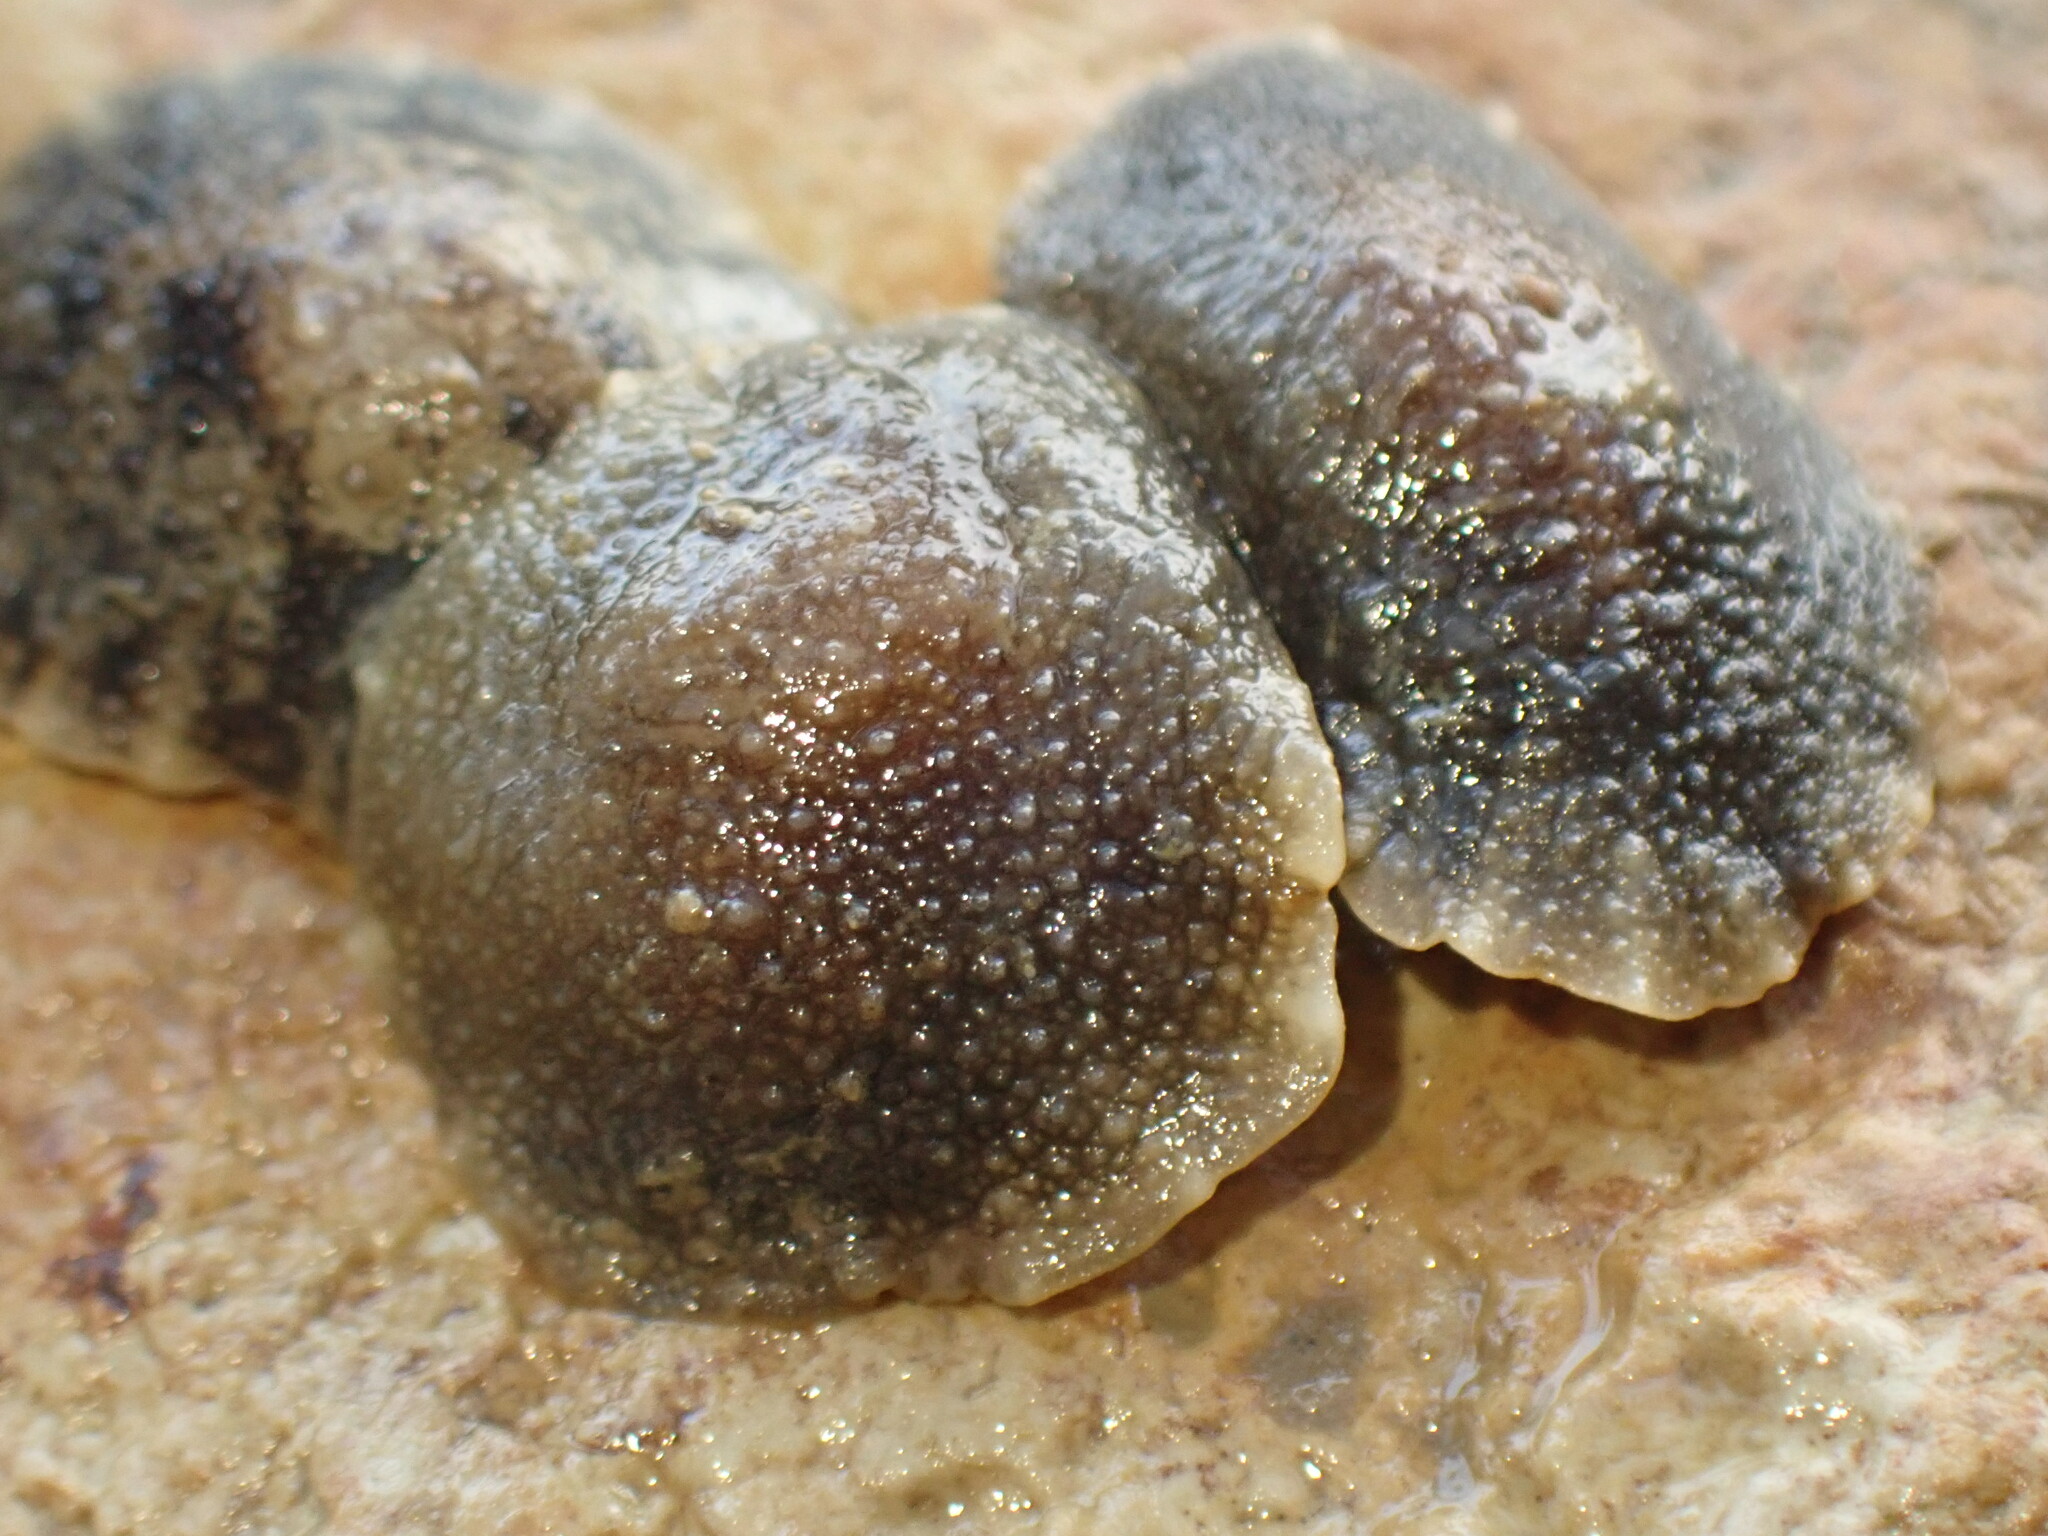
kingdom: Animalia
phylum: Mollusca
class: Gastropoda
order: Systellommatophora
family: Onchidiidae
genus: Onchidella
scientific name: Onchidella nigricans
